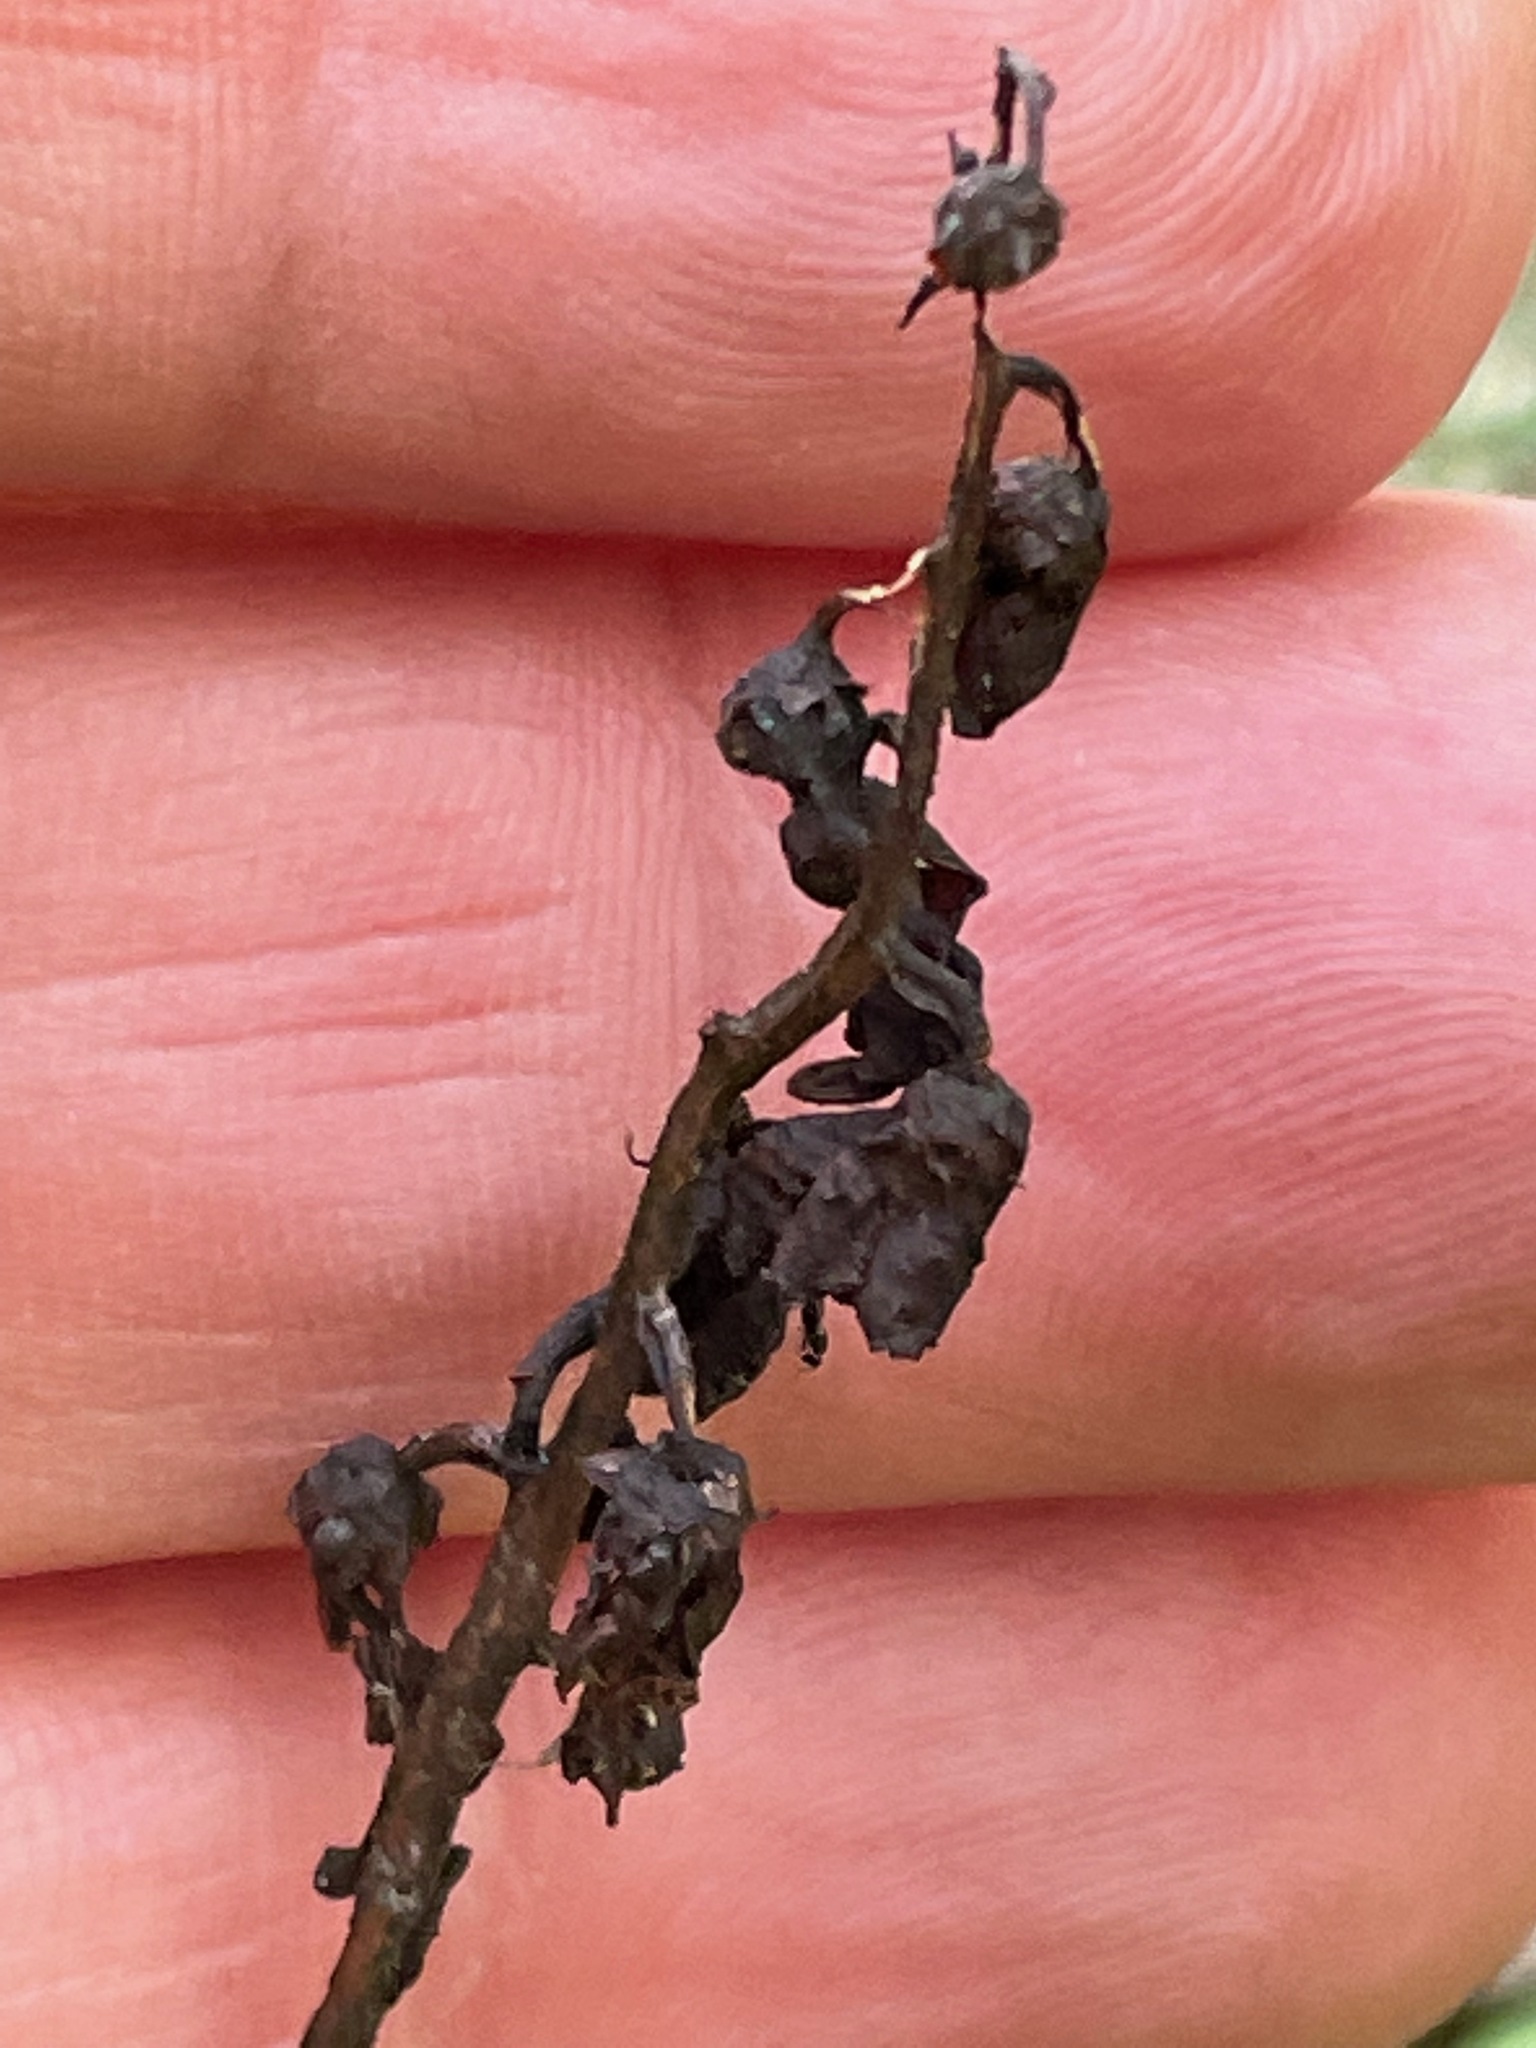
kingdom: Plantae
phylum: Tracheophyta
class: Magnoliopsida
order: Ericales
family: Ericaceae
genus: Pyrola
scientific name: Pyrola elliptica
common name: Shinleaf
